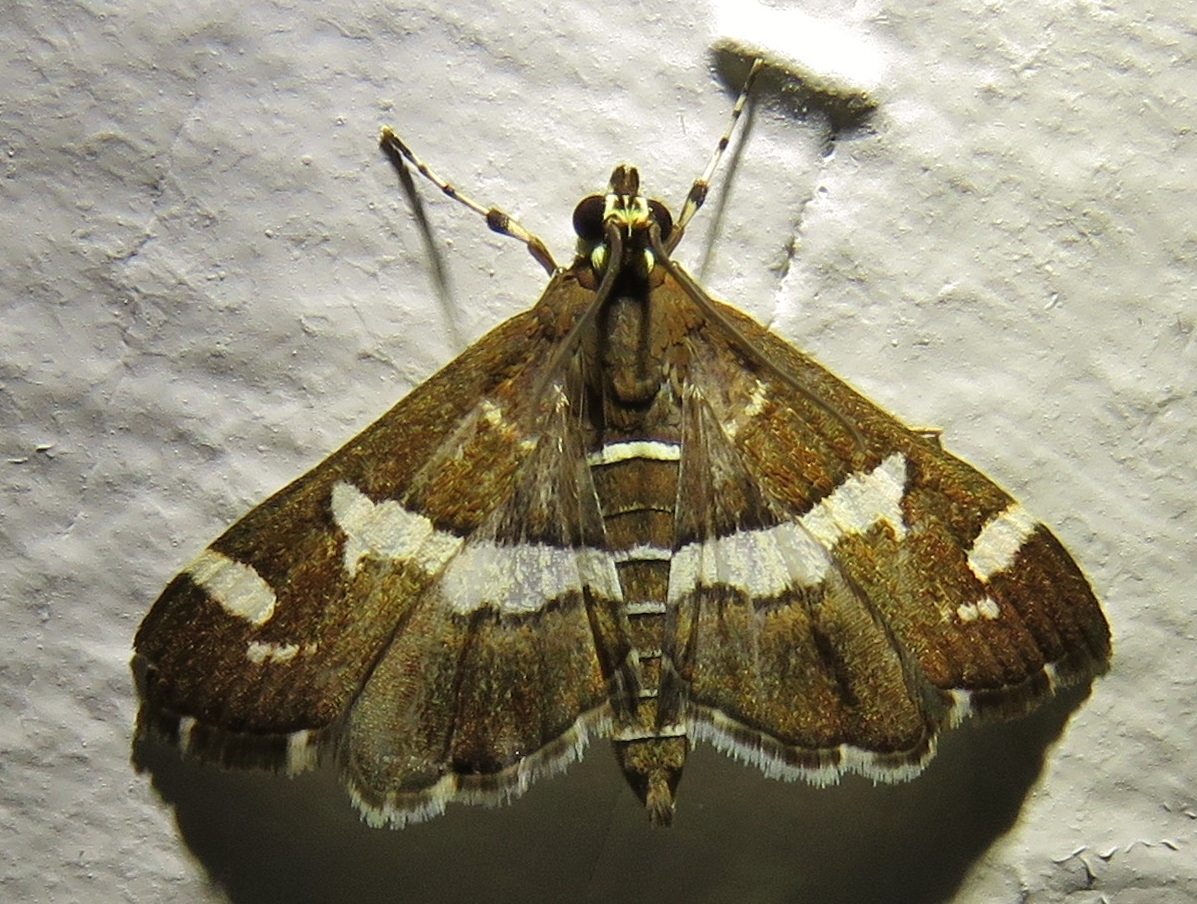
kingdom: Animalia
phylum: Arthropoda
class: Insecta
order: Lepidoptera
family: Crambidae
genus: Spoladea
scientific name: Spoladea recurvalis
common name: Beet webworm moth
